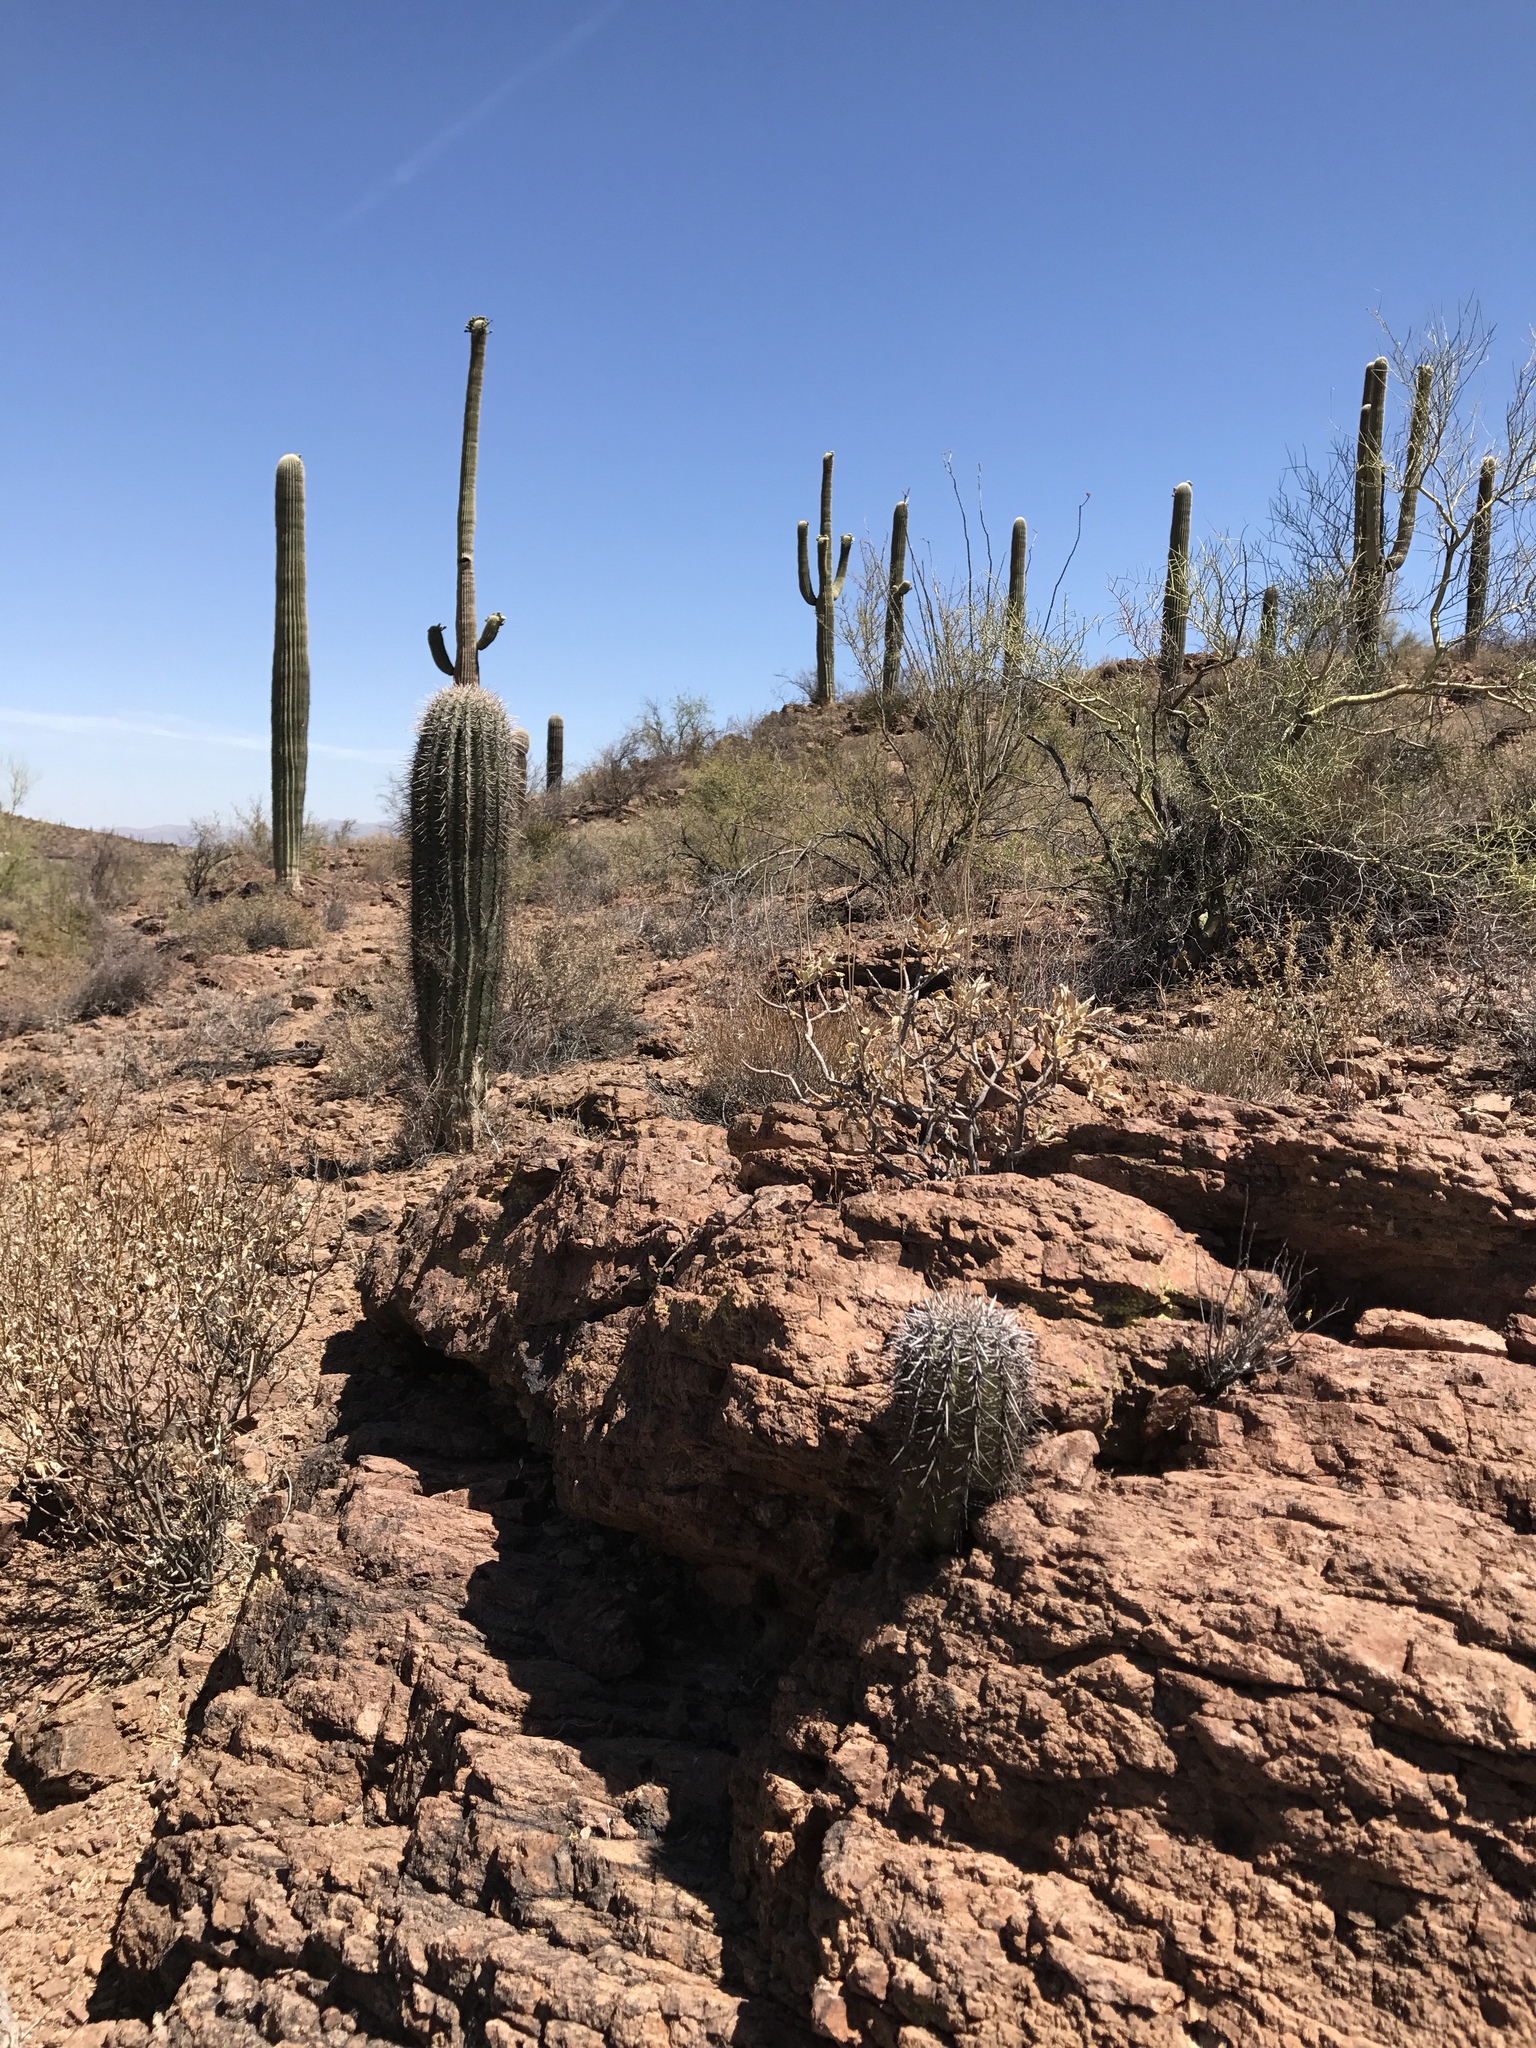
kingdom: Plantae
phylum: Tracheophyta
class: Magnoliopsida
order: Caryophyllales
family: Cactaceae
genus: Carnegiea
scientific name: Carnegiea gigantea
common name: Saguaro
